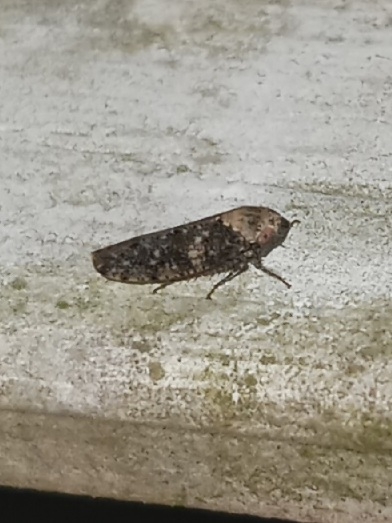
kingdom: Animalia
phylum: Arthropoda
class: Insecta
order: Hemiptera
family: Cicadellidae
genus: Paraphlepsius
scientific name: Paraphlepsius collitus
